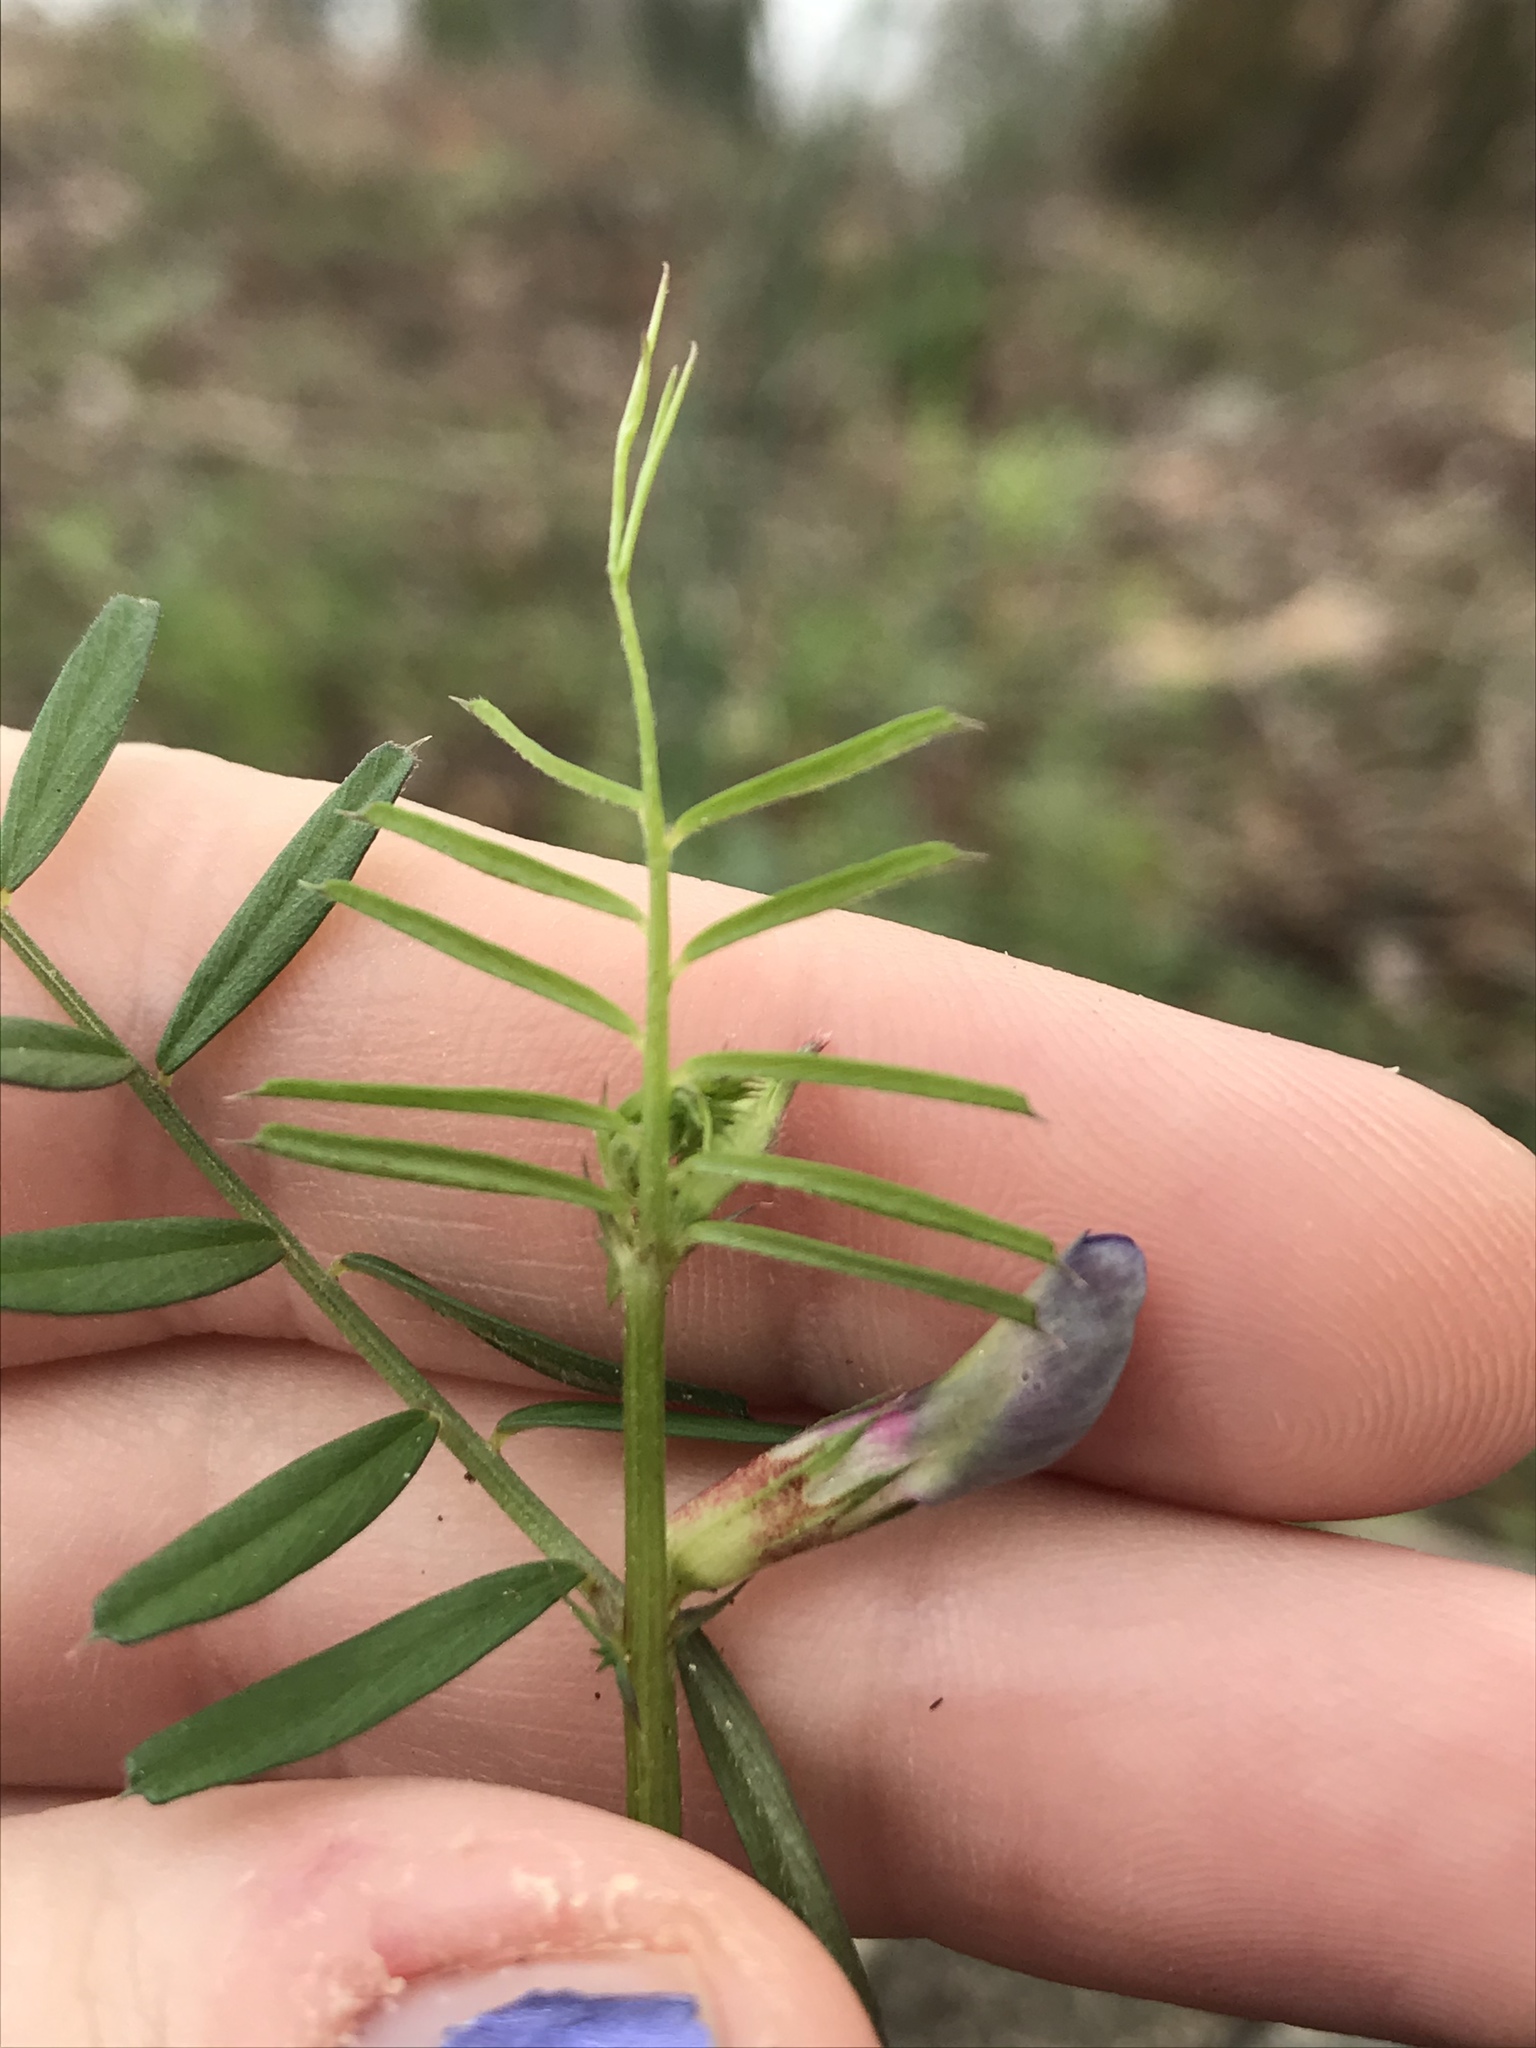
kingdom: Plantae
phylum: Tracheophyta
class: Magnoliopsida
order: Fabales
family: Fabaceae
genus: Vicia
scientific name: Vicia sativa
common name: Garden vetch
